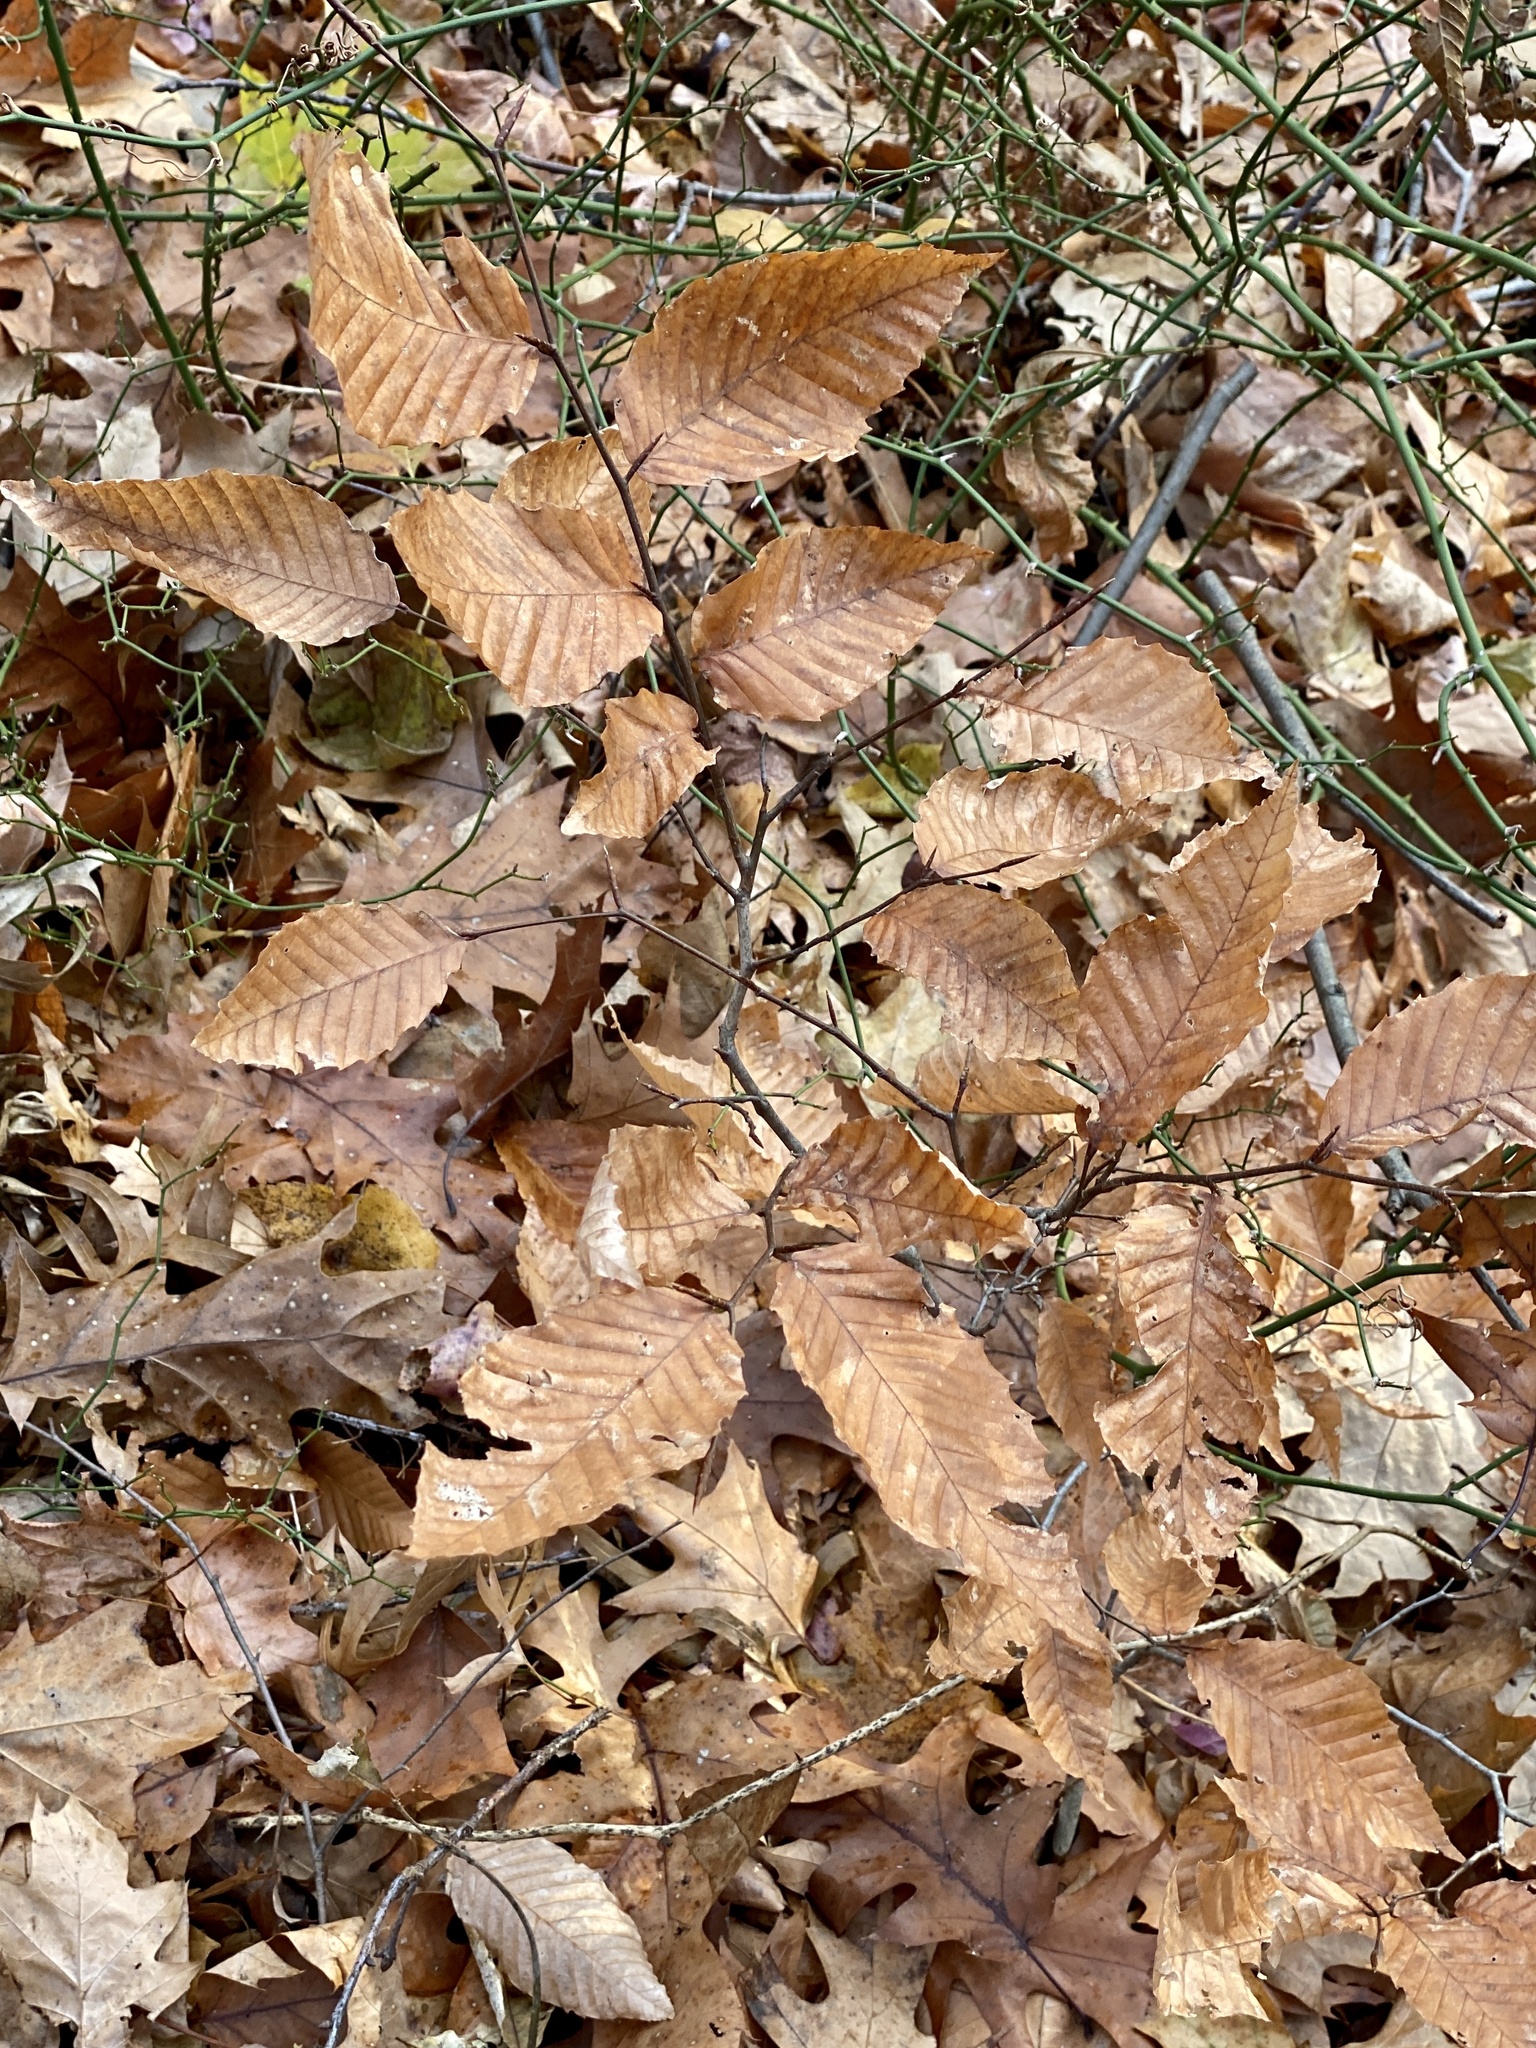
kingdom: Plantae
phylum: Tracheophyta
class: Magnoliopsida
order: Fagales
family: Fagaceae
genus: Fagus
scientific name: Fagus grandifolia
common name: American beech
